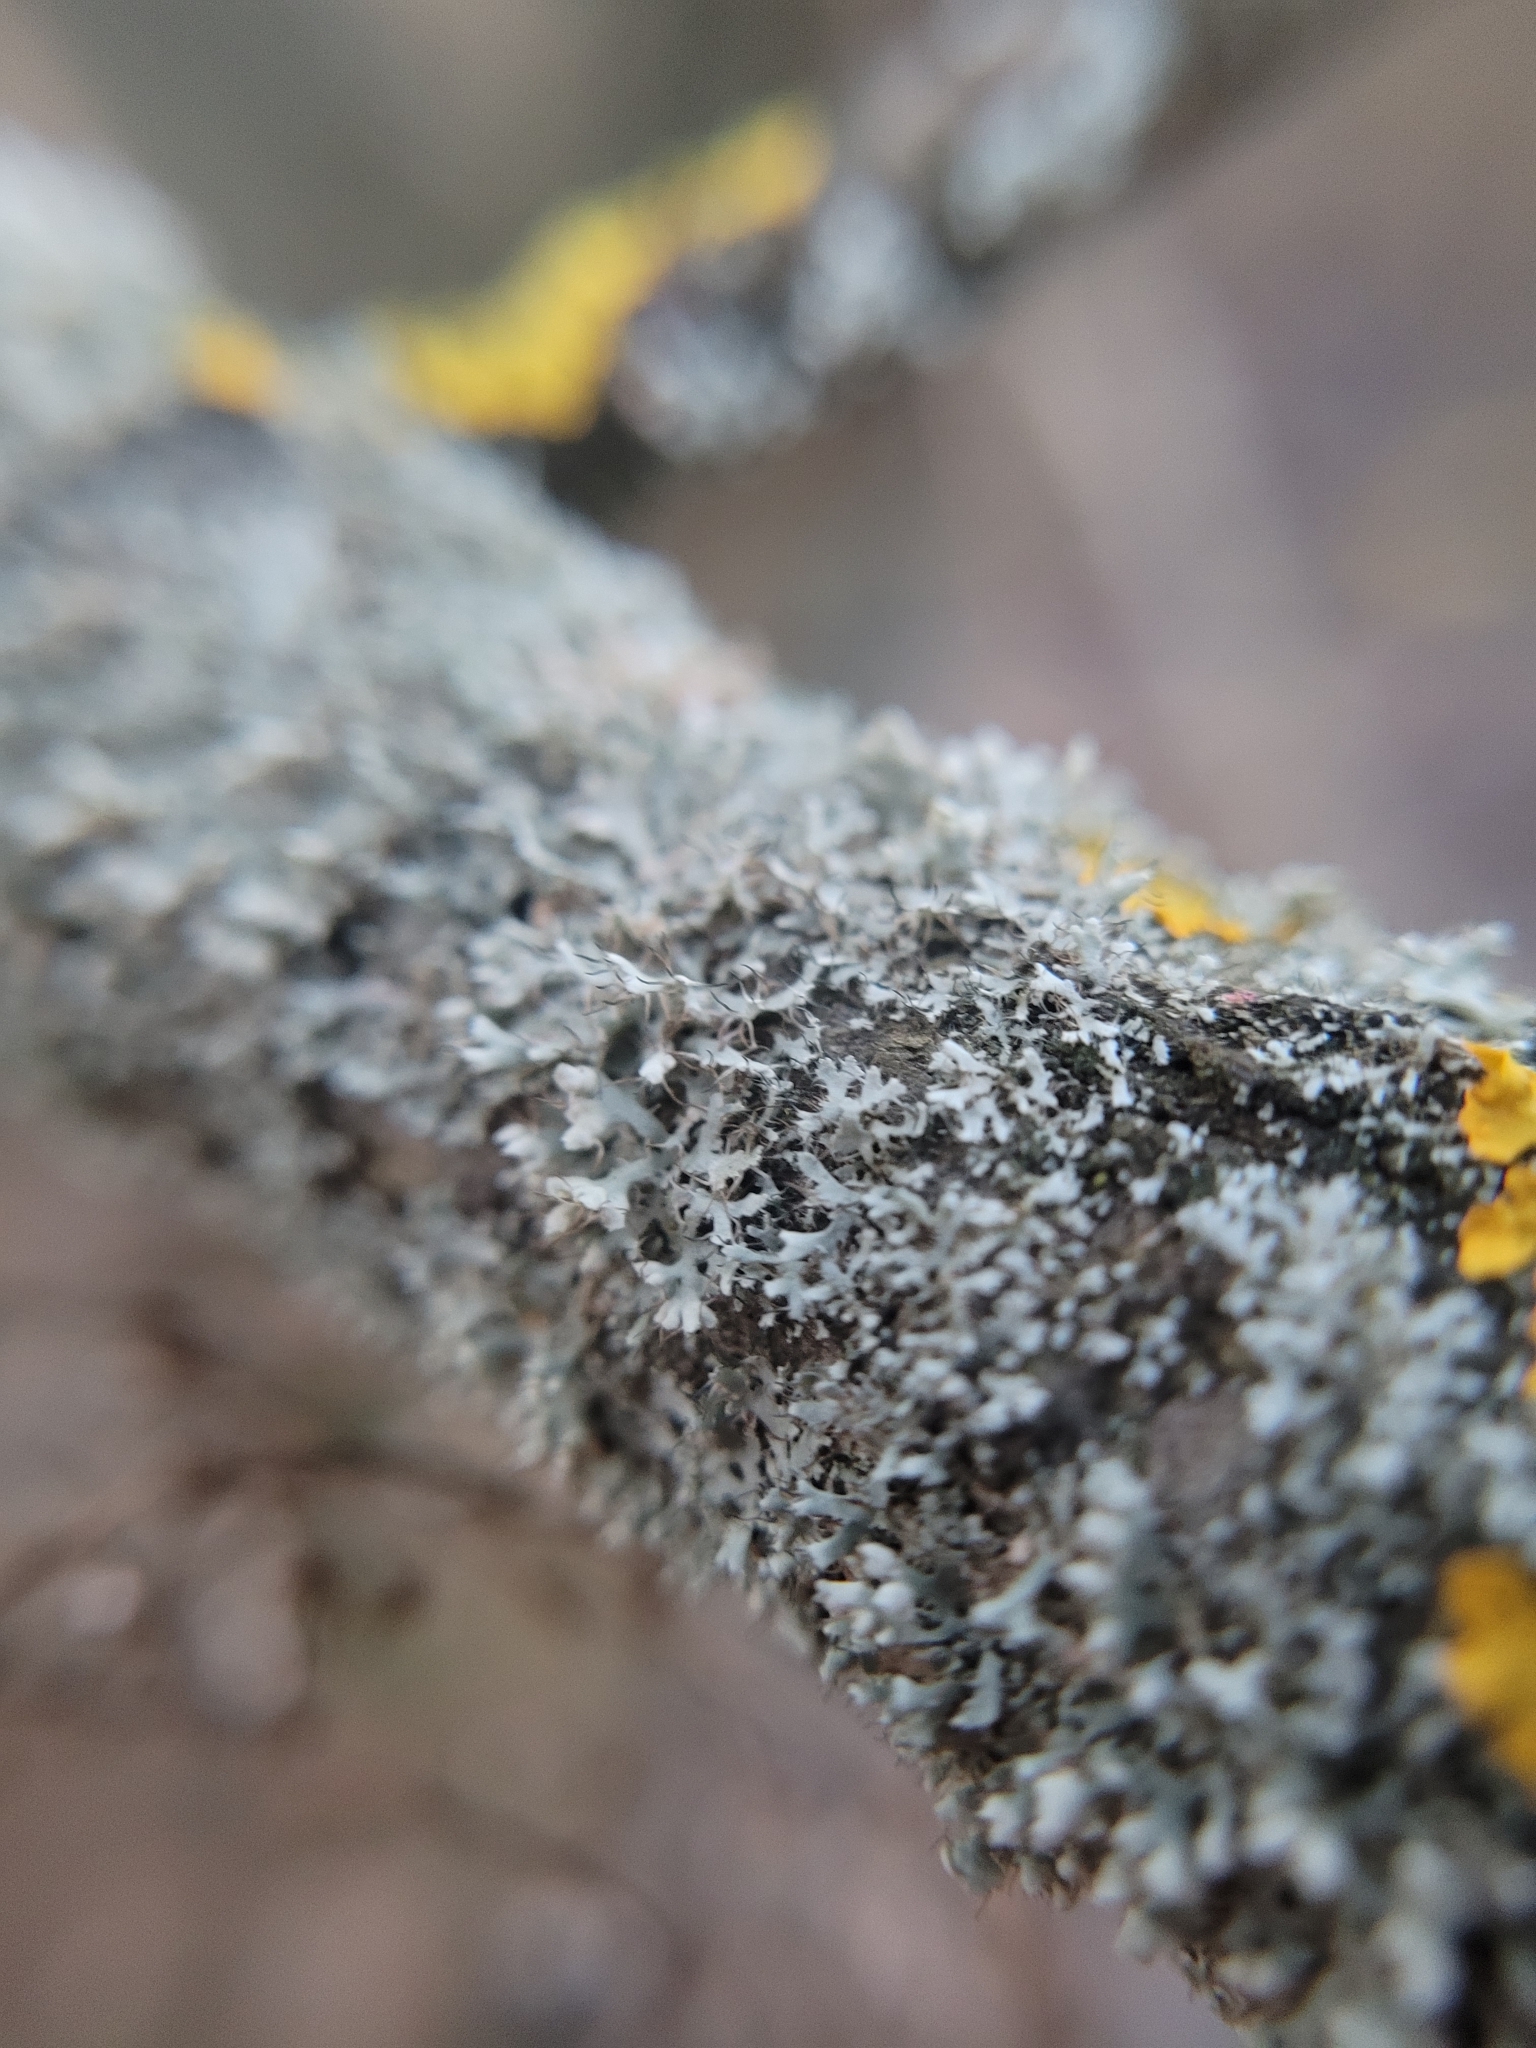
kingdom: Fungi
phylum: Ascomycota
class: Lecanoromycetes
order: Caliciales
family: Physciaceae
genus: Physcia
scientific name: Physcia adscendens
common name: Hooded rosette lichen
